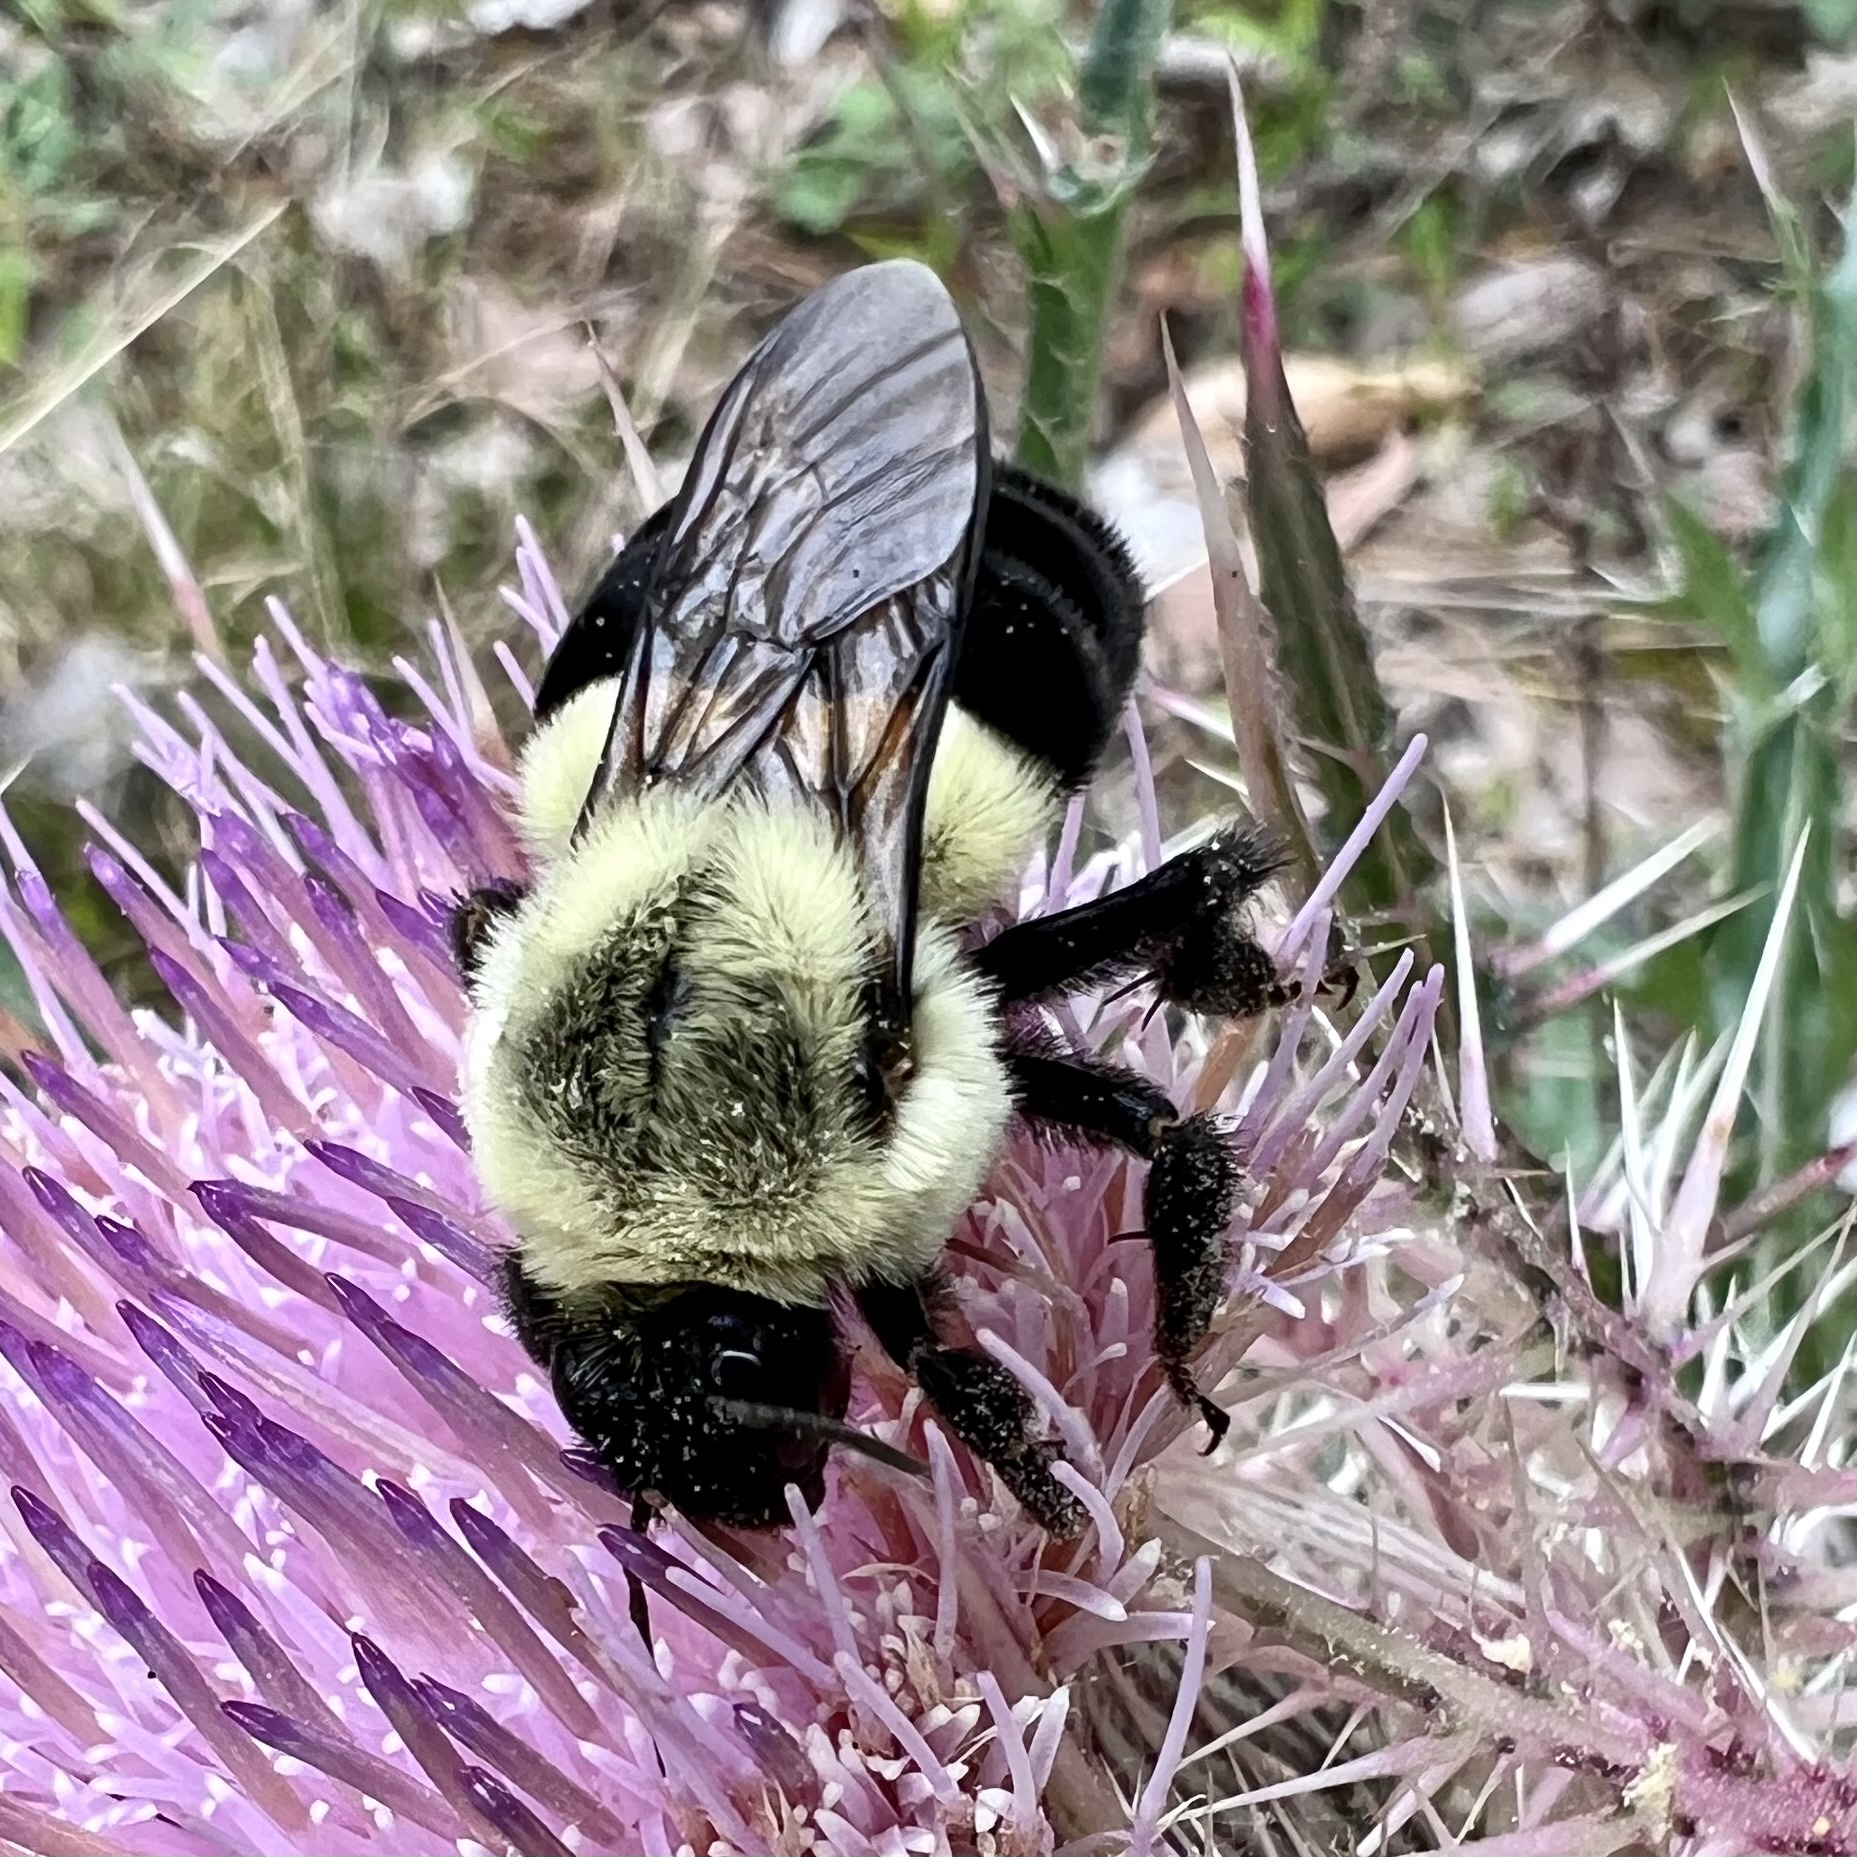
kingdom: Animalia
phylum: Arthropoda
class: Insecta
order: Hymenoptera
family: Apidae
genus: Bombus
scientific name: Bombus impatiens
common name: Common eastern bumble bee
